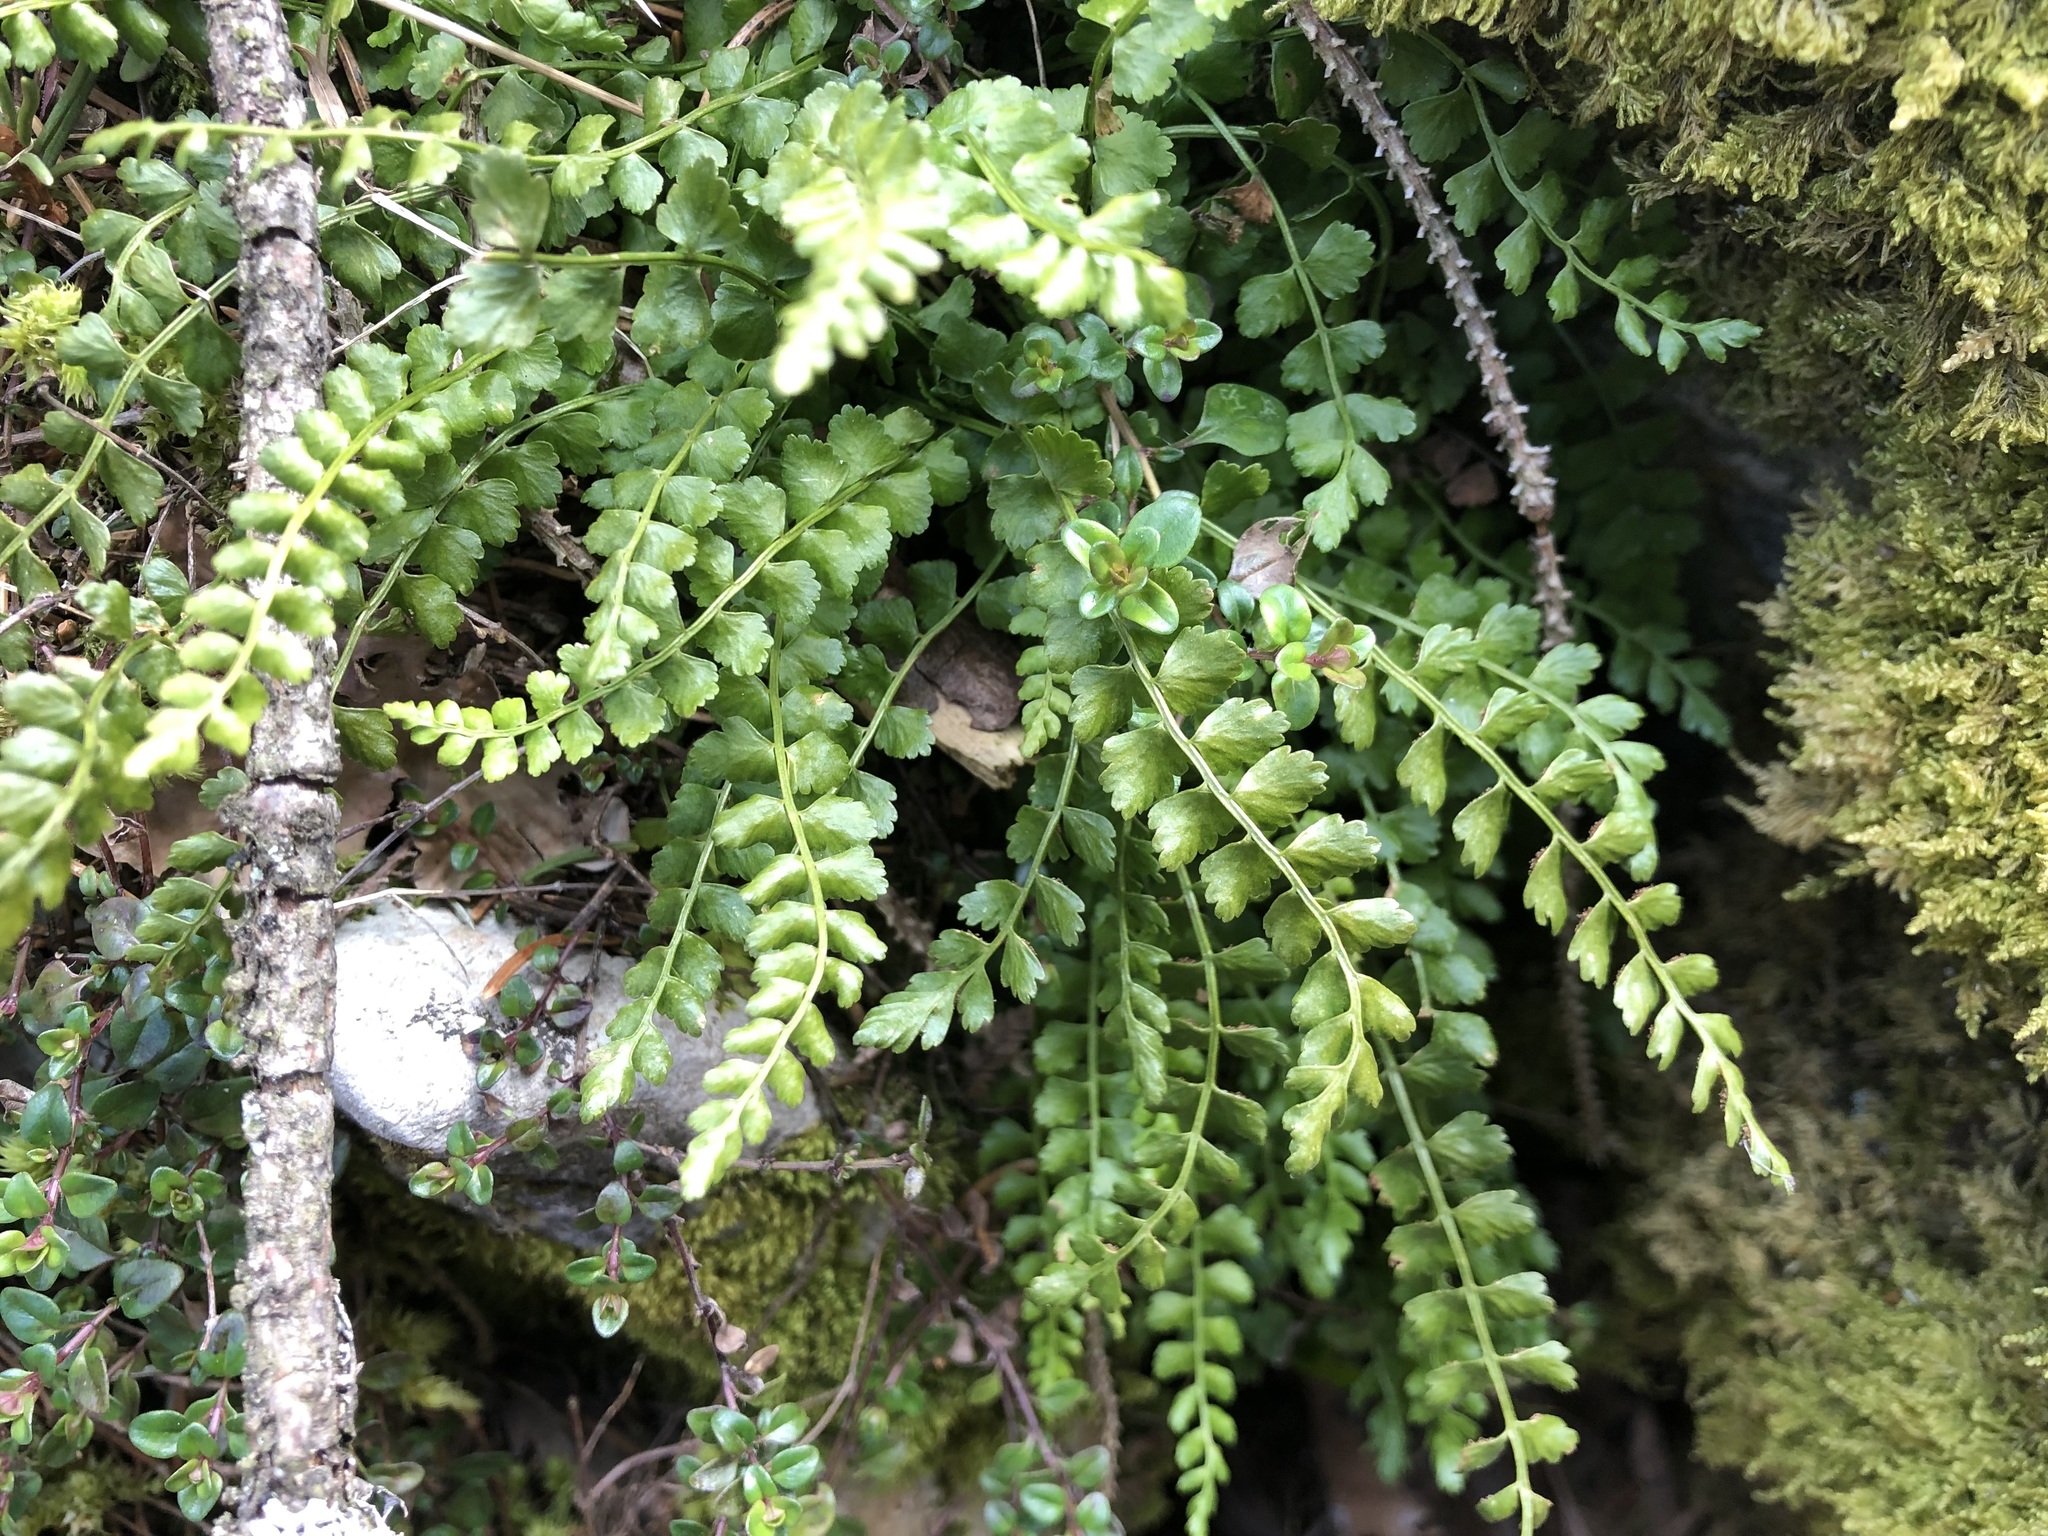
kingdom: Plantae
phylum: Tracheophyta
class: Polypodiopsida
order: Polypodiales
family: Aspleniaceae
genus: Asplenium
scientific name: Asplenium viride
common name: Green spleenwort
